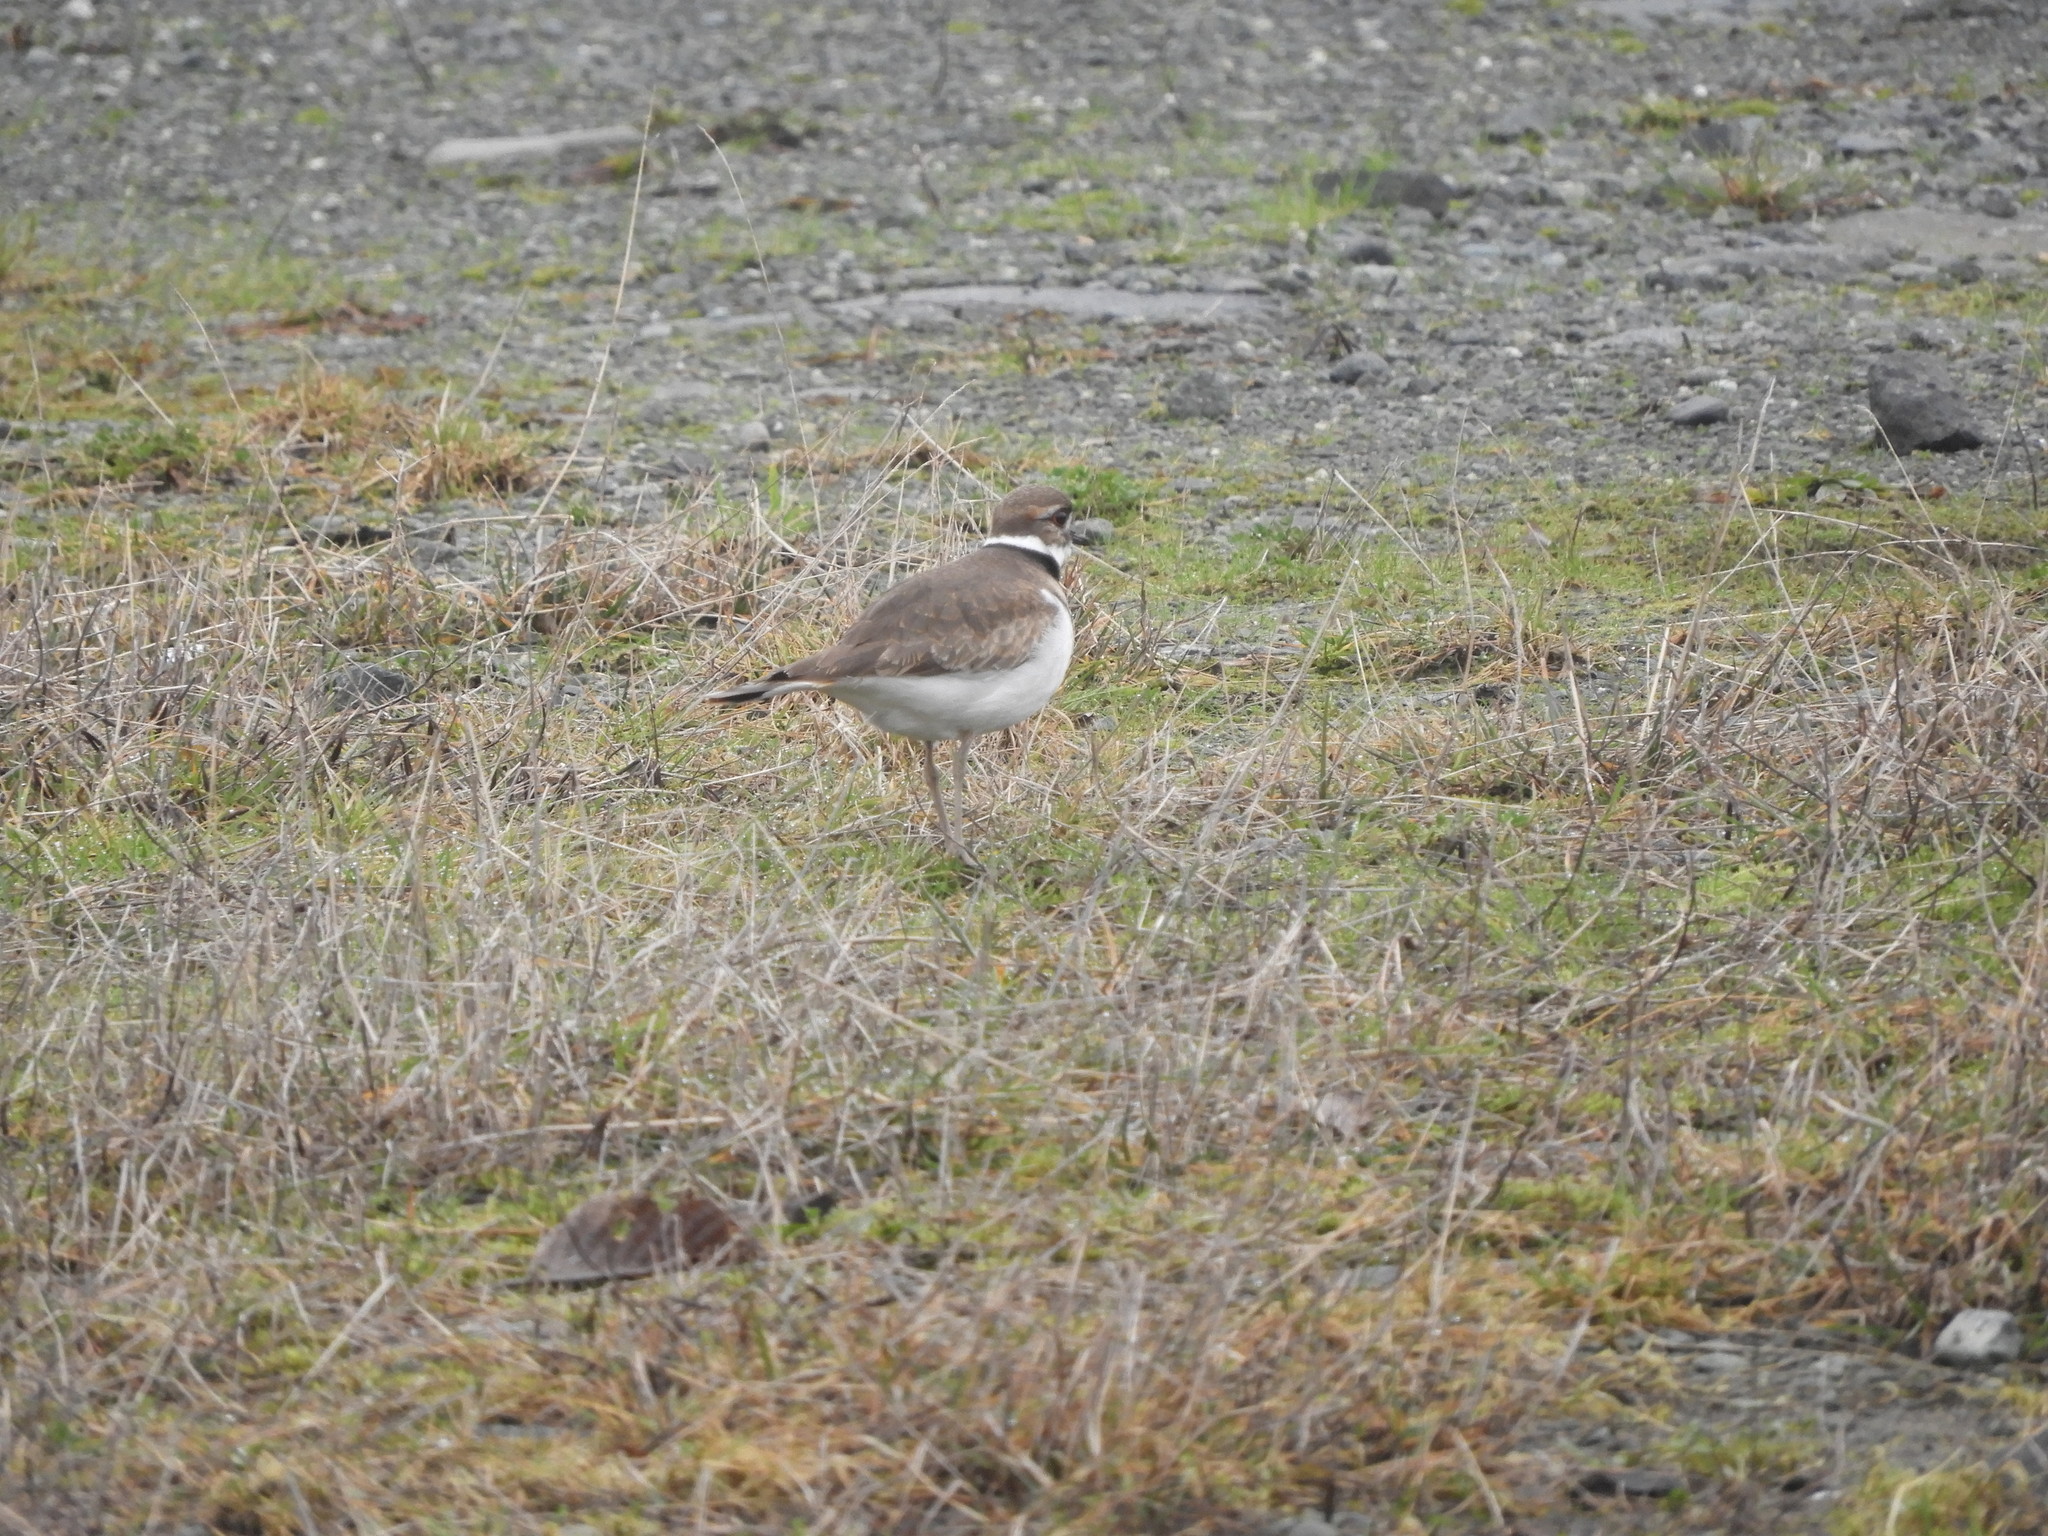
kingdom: Animalia
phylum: Chordata
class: Aves
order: Charadriiformes
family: Charadriidae
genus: Charadrius
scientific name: Charadrius vociferus
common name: Killdeer
